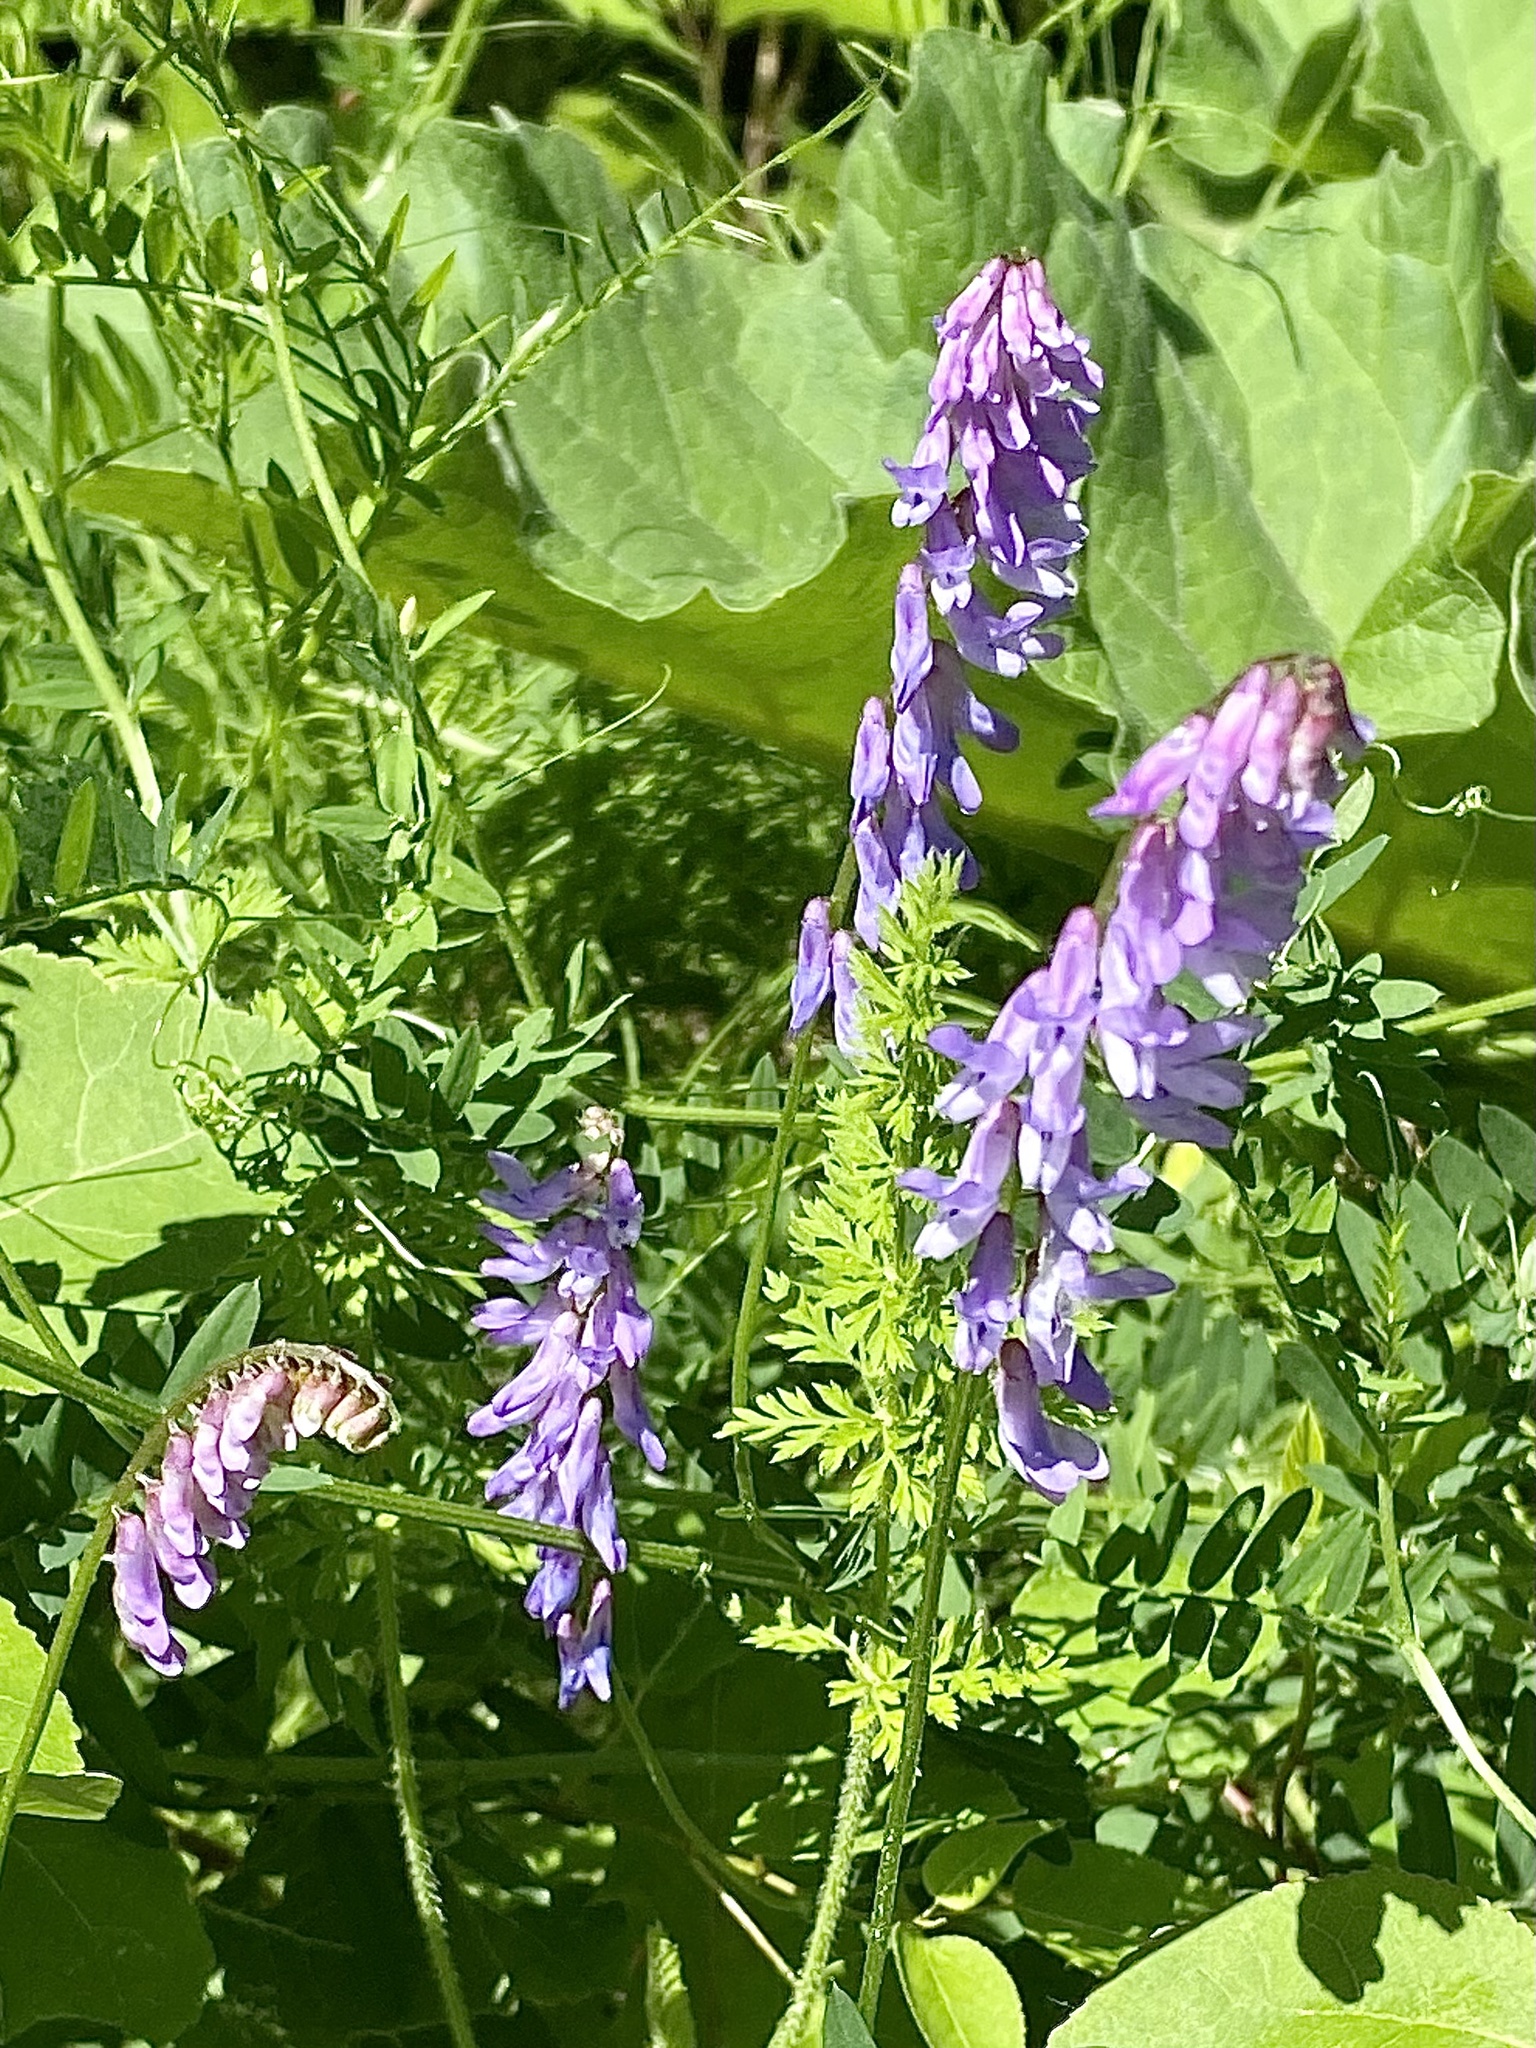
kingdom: Plantae
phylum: Tracheophyta
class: Magnoliopsida
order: Fabales
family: Fabaceae
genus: Vicia
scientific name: Vicia cracca
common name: Bird vetch
